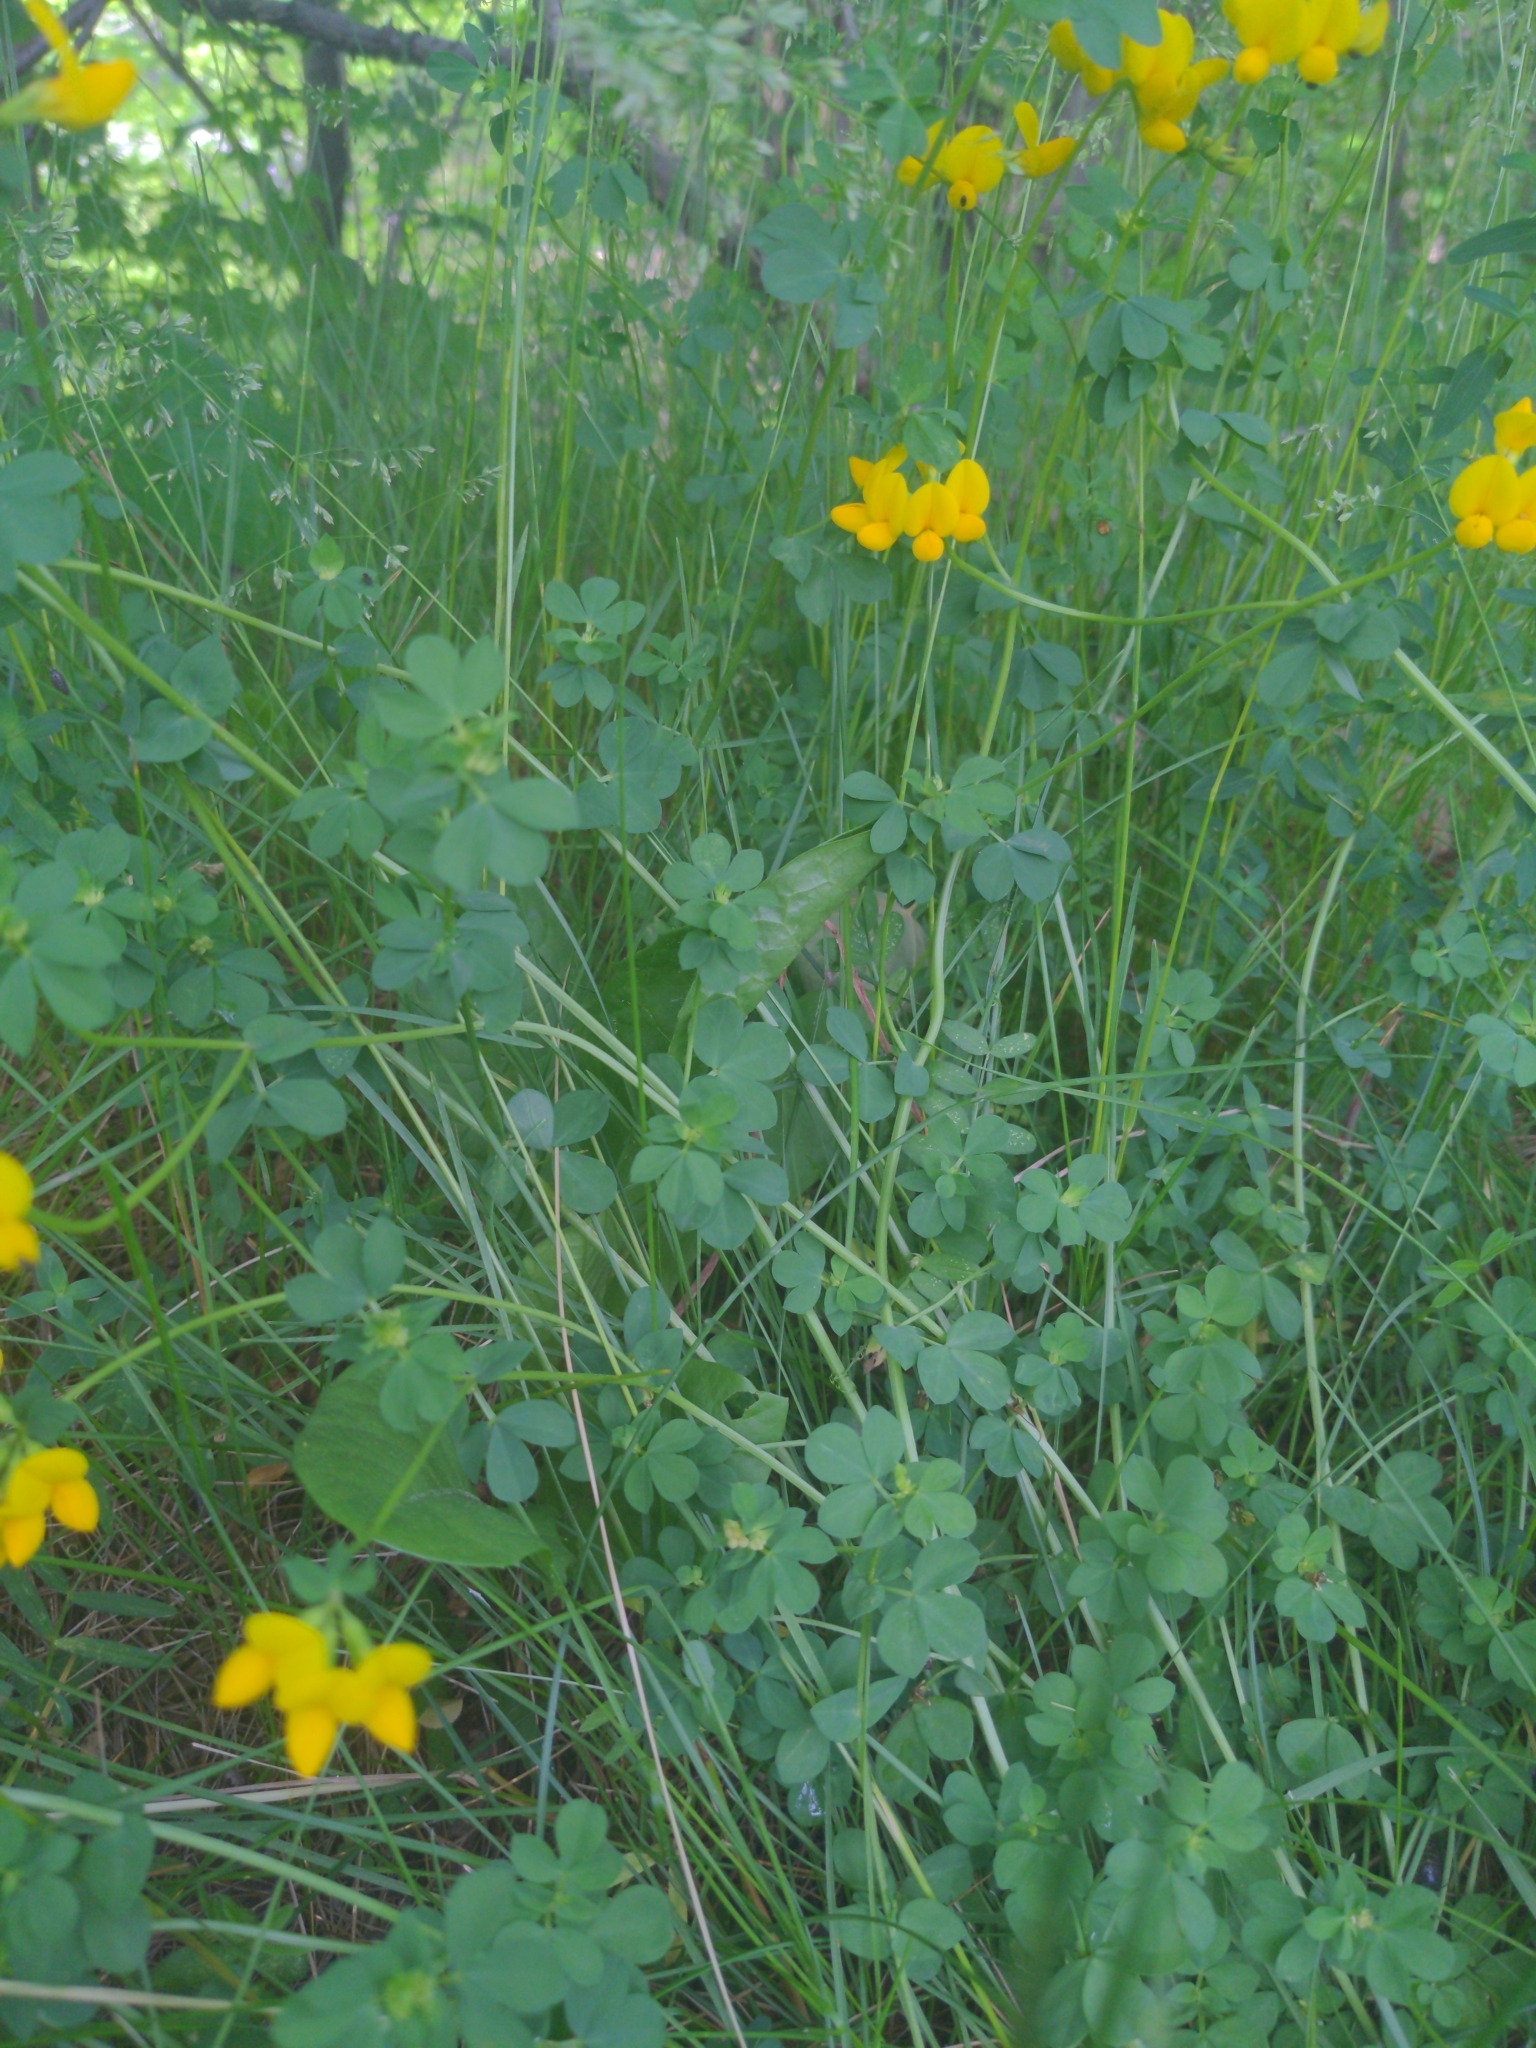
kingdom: Plantae
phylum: Tracheophyta
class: Magnoliopsida
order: Fabales
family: Fabaceae
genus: Lotus
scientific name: Lotus corniculatus
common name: Common bird's-foot-trefoil
